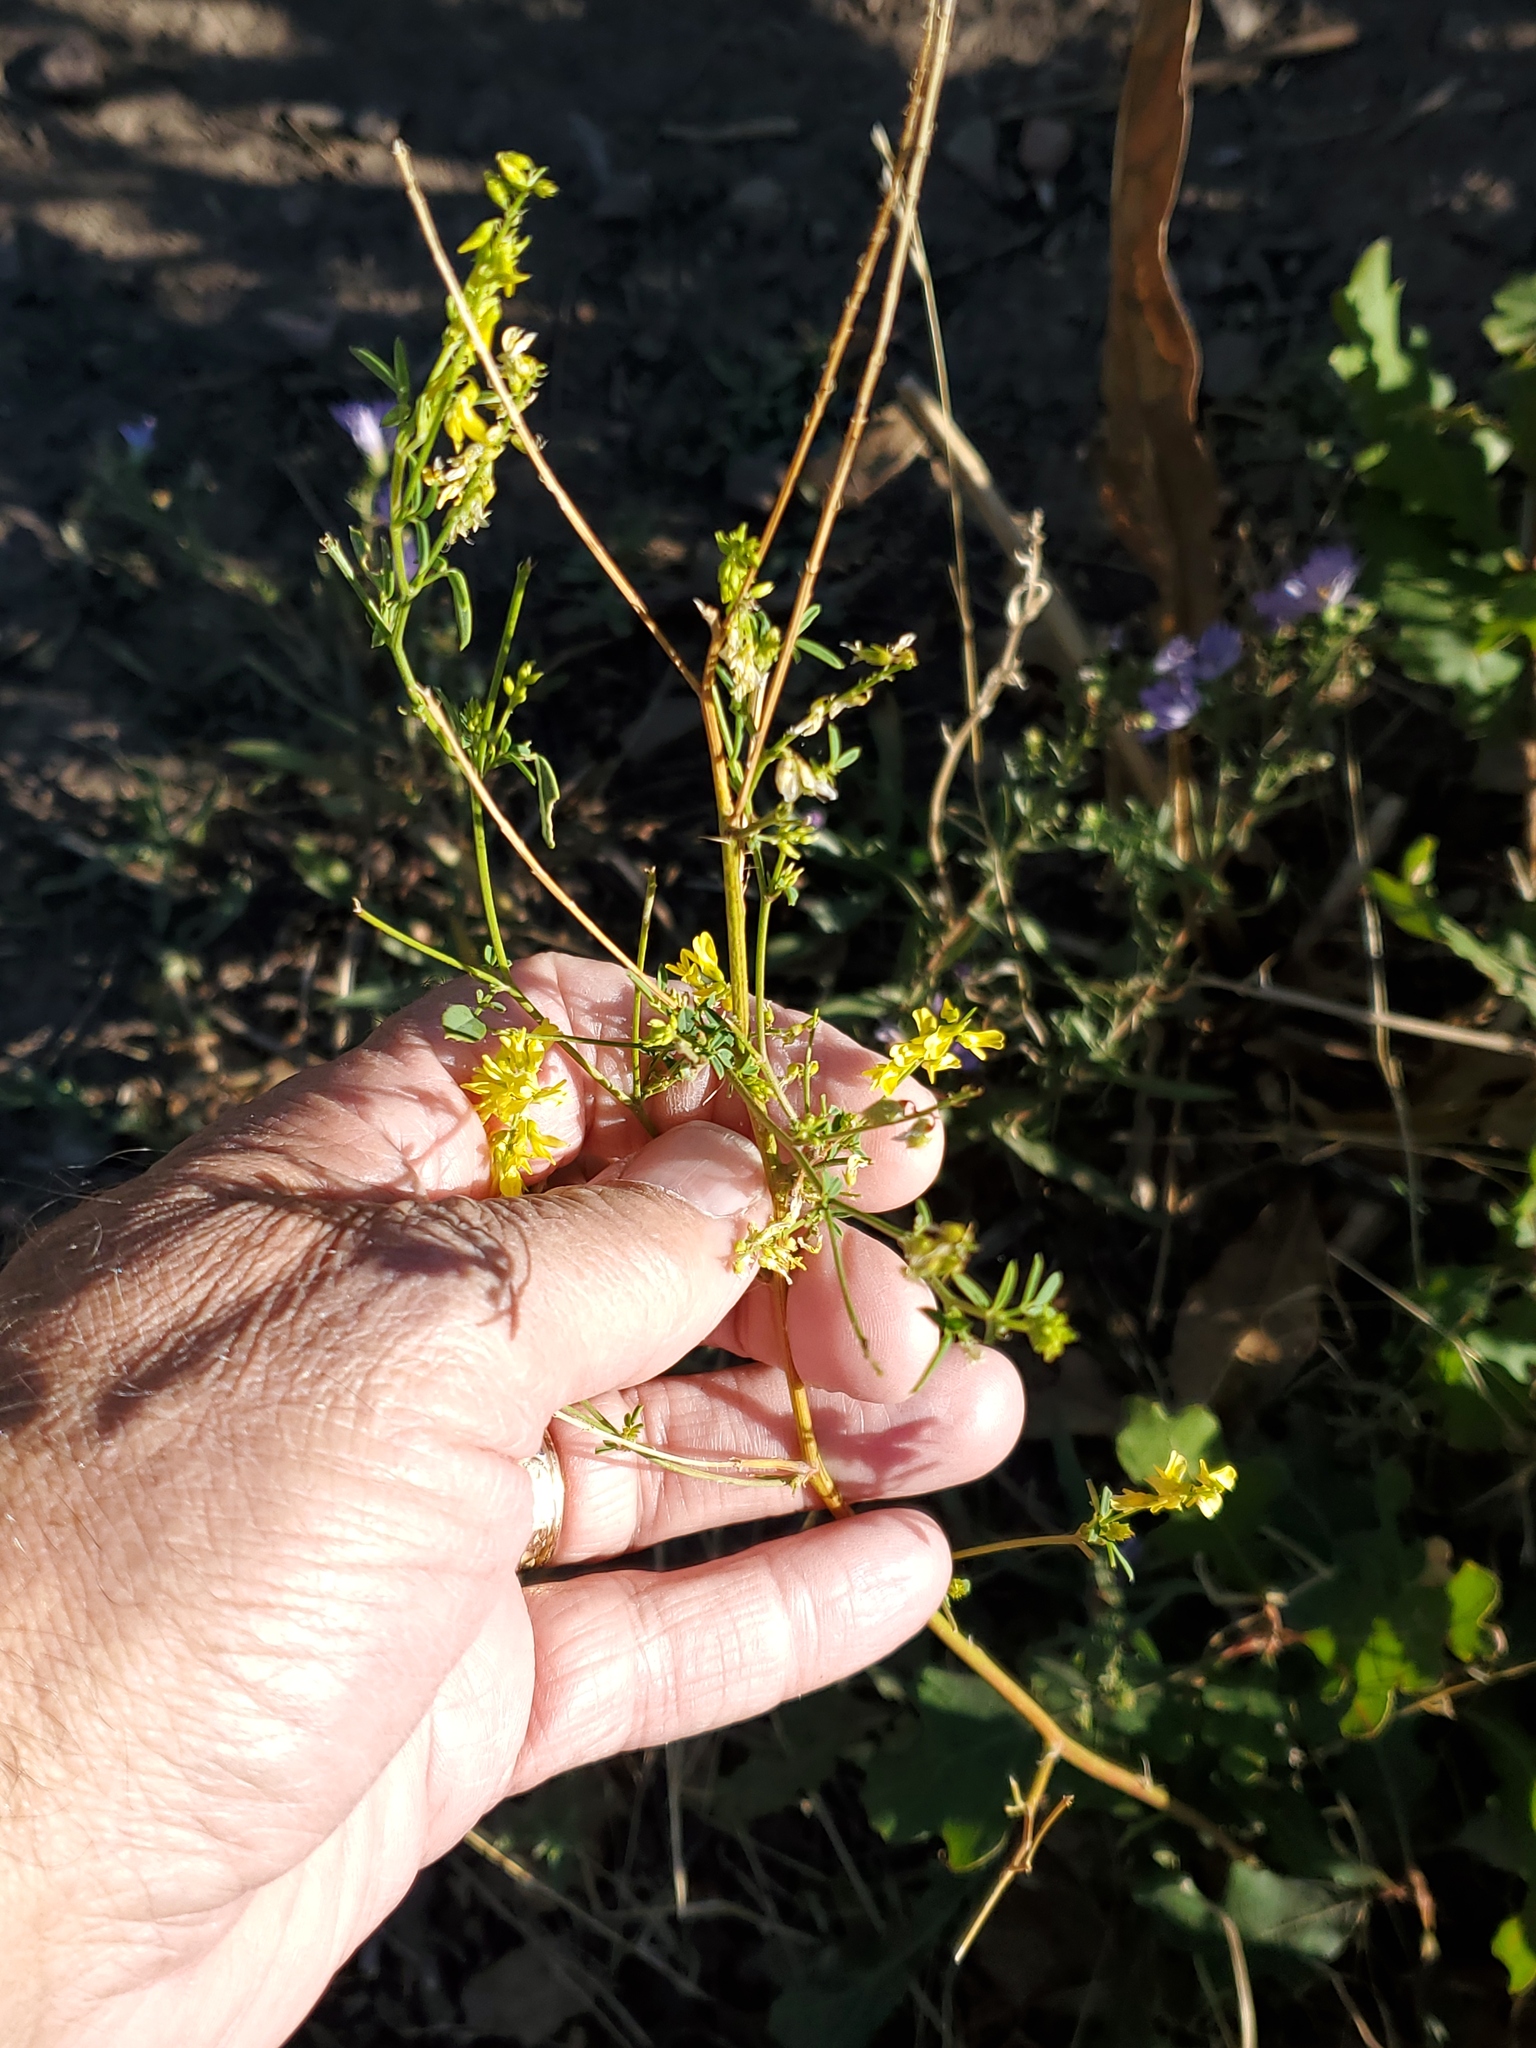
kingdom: Plantae
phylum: Tracheophyta
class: Magnoliopsida
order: Fabales
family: Fabaceae
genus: Melilotus
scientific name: Melilotus officinalis
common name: Sweetclover
